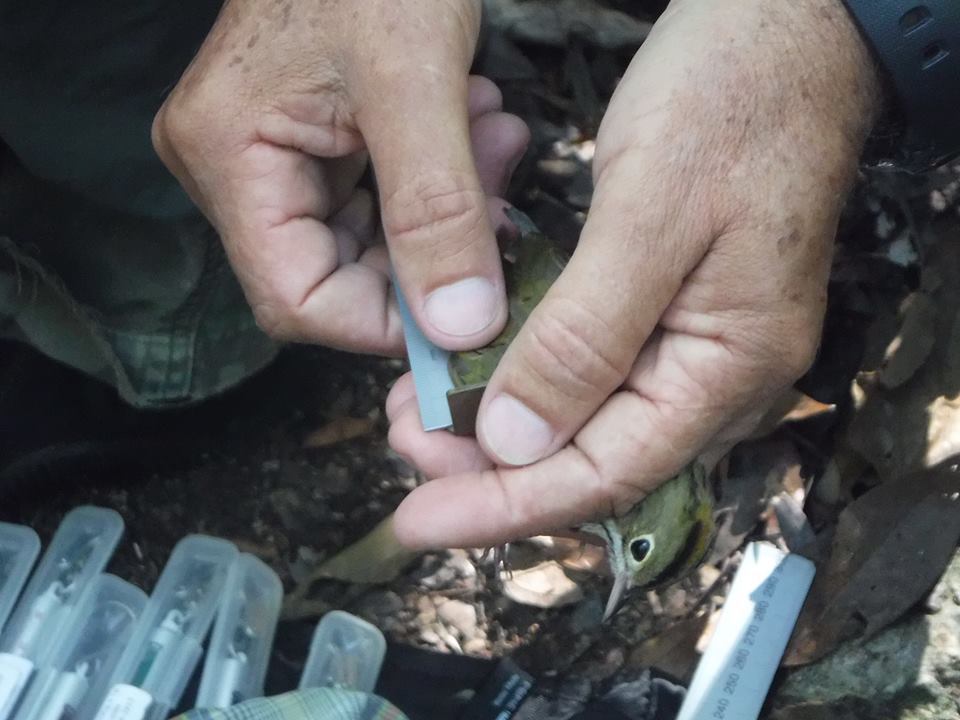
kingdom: Animalia
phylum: Chordata
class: Aves
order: Passeriformes
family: Parulidae
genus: Seiurus
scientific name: Seiurus aurocapilla
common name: Ovenbird
